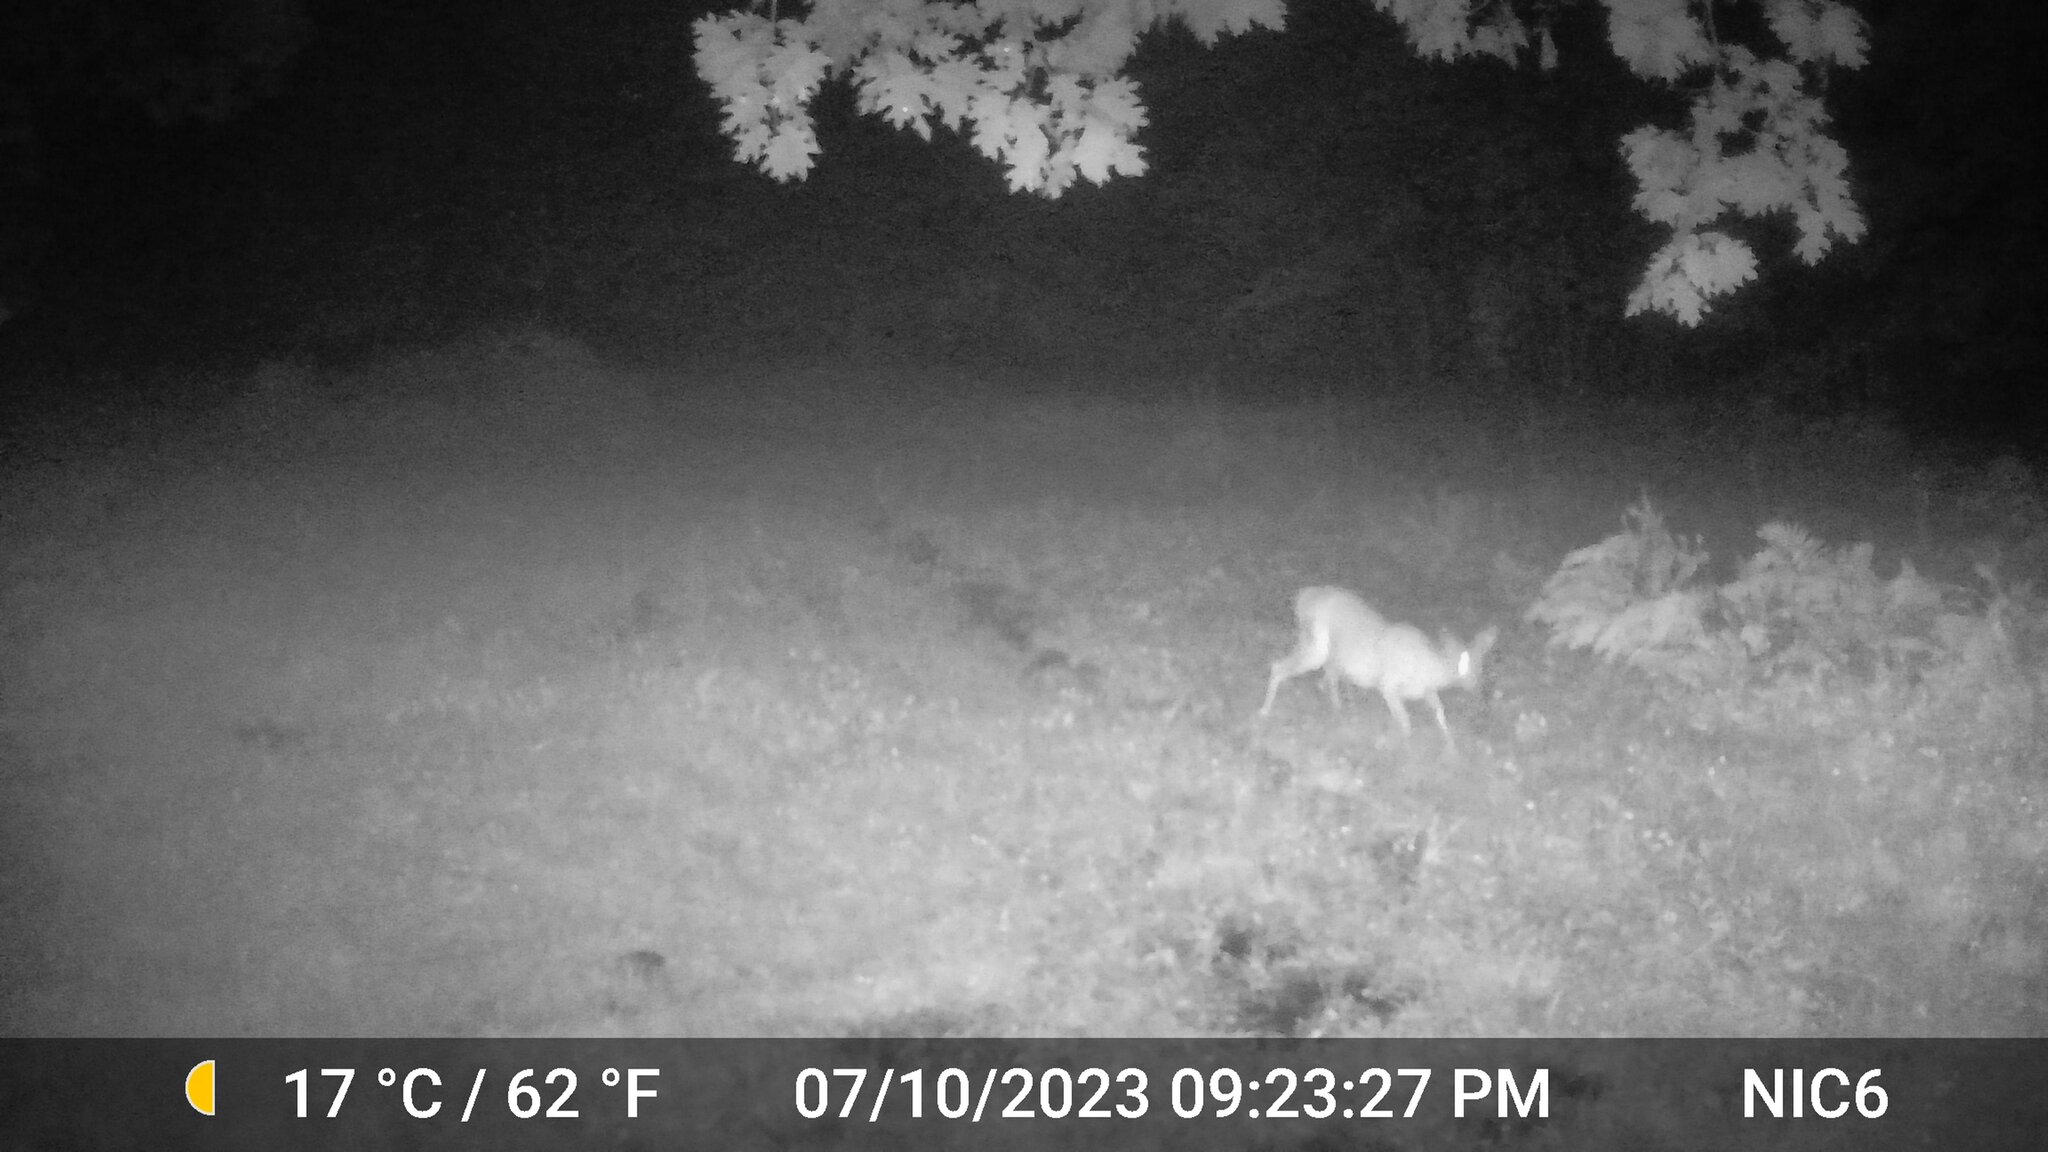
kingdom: Animalia
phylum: Chordata
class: Mammalia
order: Artiodactyla
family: Cervidae
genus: Odocoileus
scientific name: Odocoileus virginianus
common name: White-tailed deer
